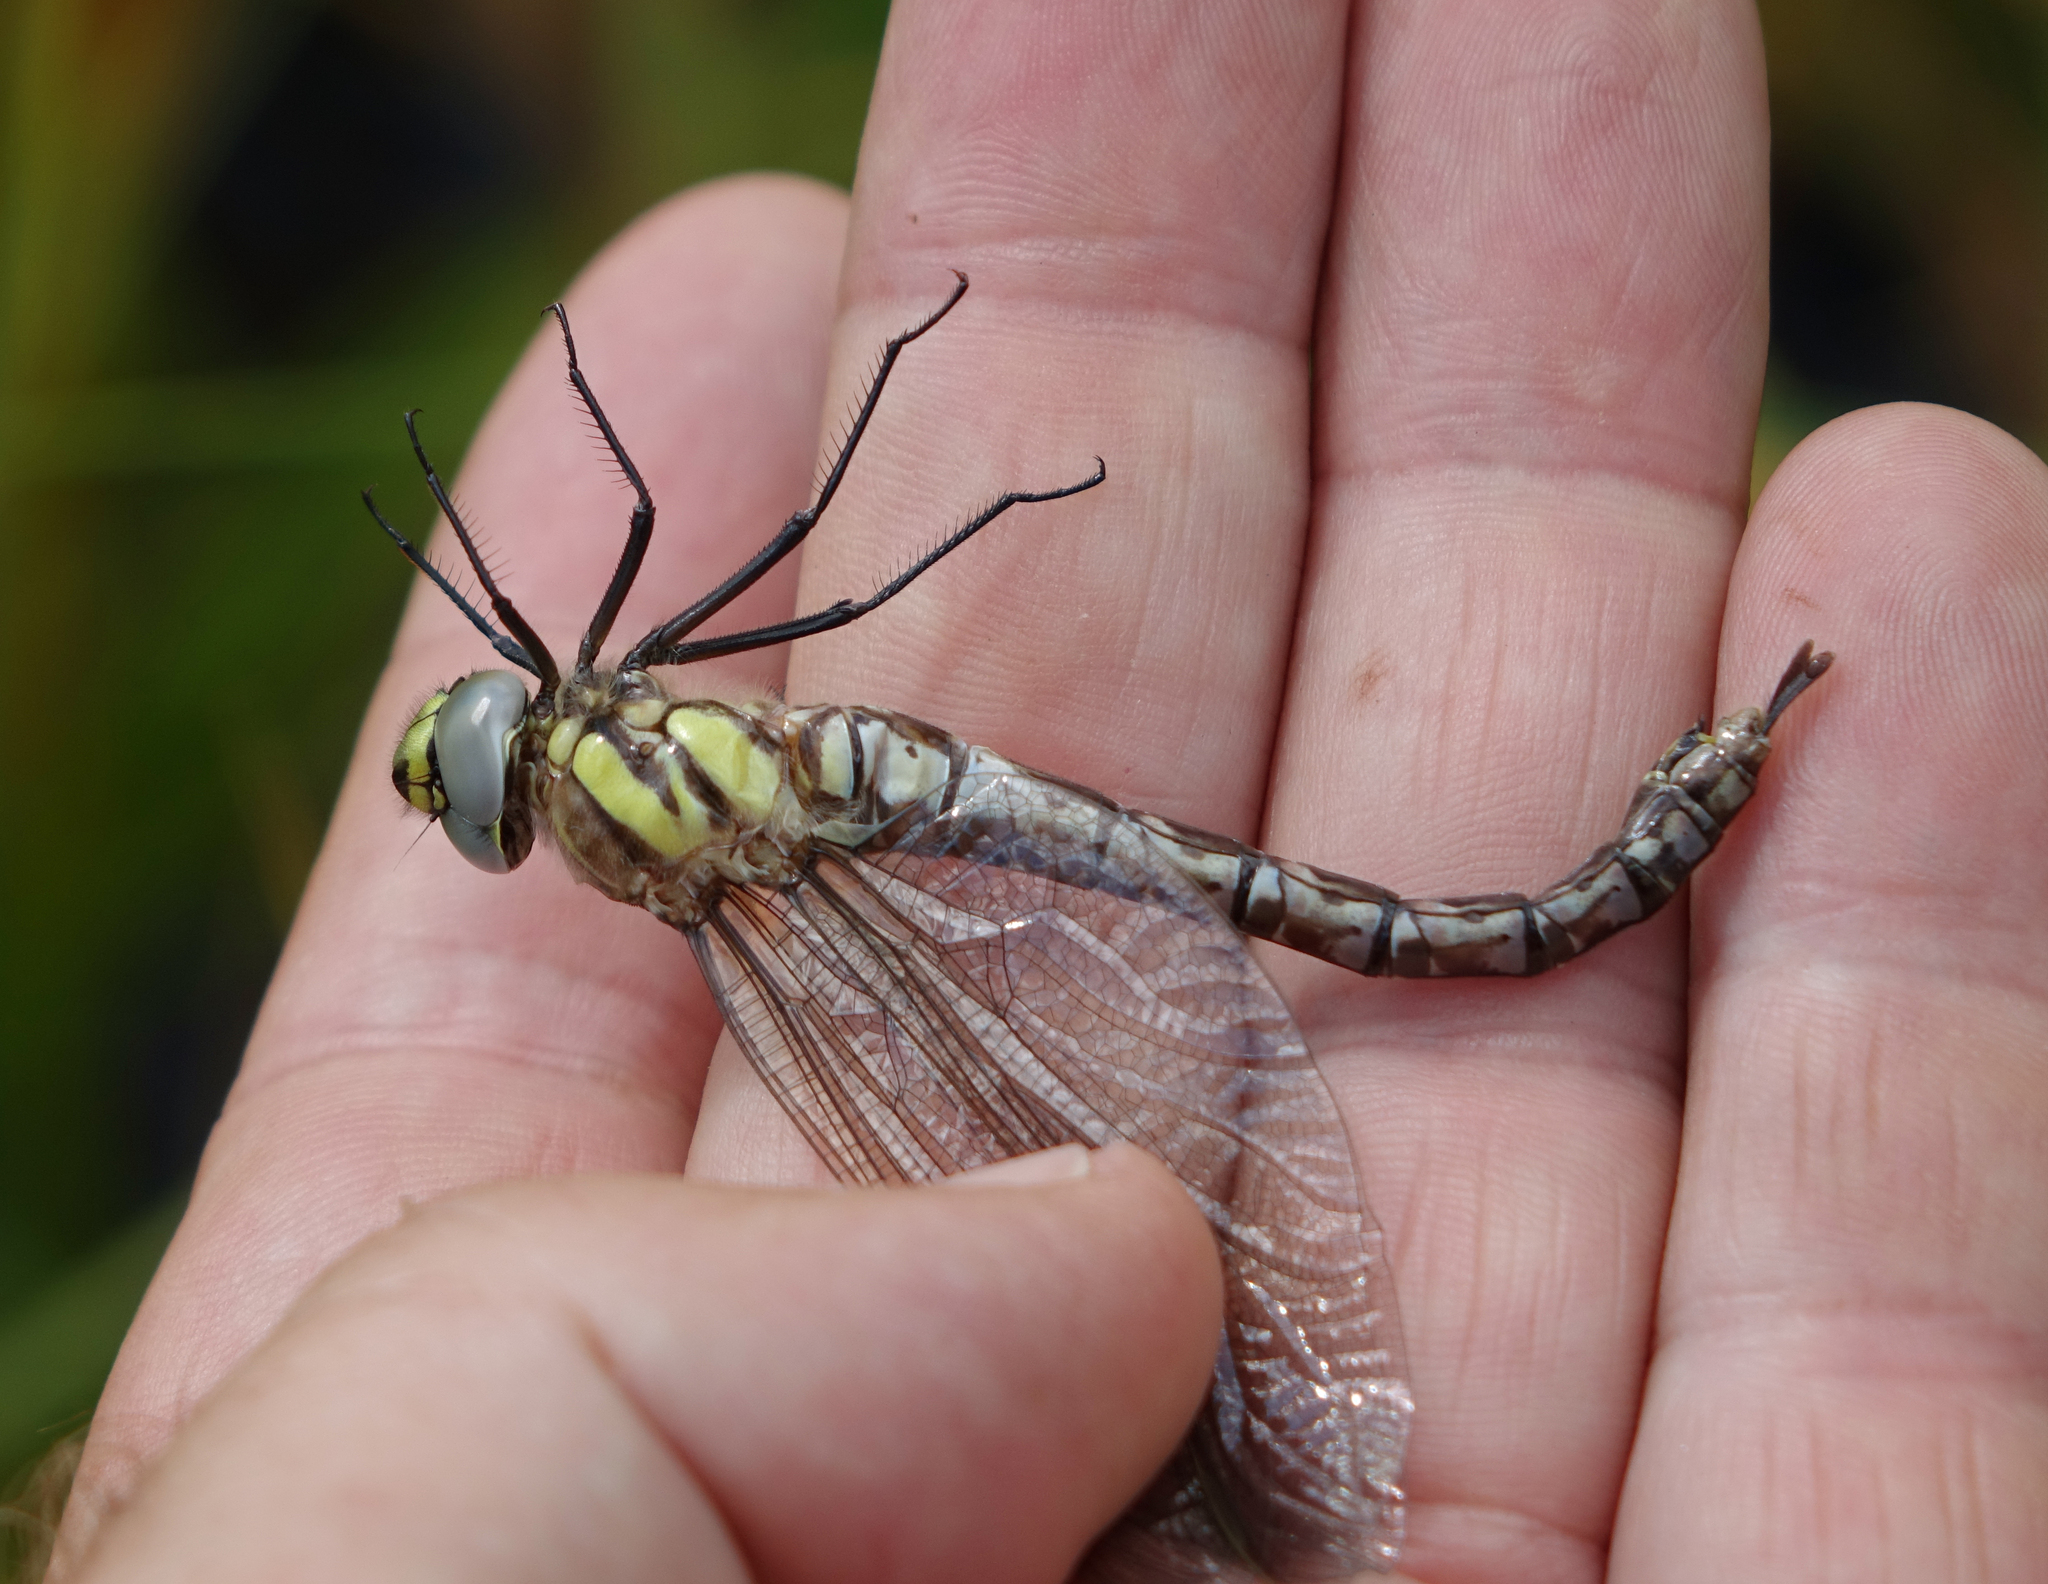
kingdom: Animalia
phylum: Arthropoda
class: Insecta
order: Odonata
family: Aeshnidae
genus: Aeshna
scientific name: Aeshna juncea
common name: Moorland hawker
